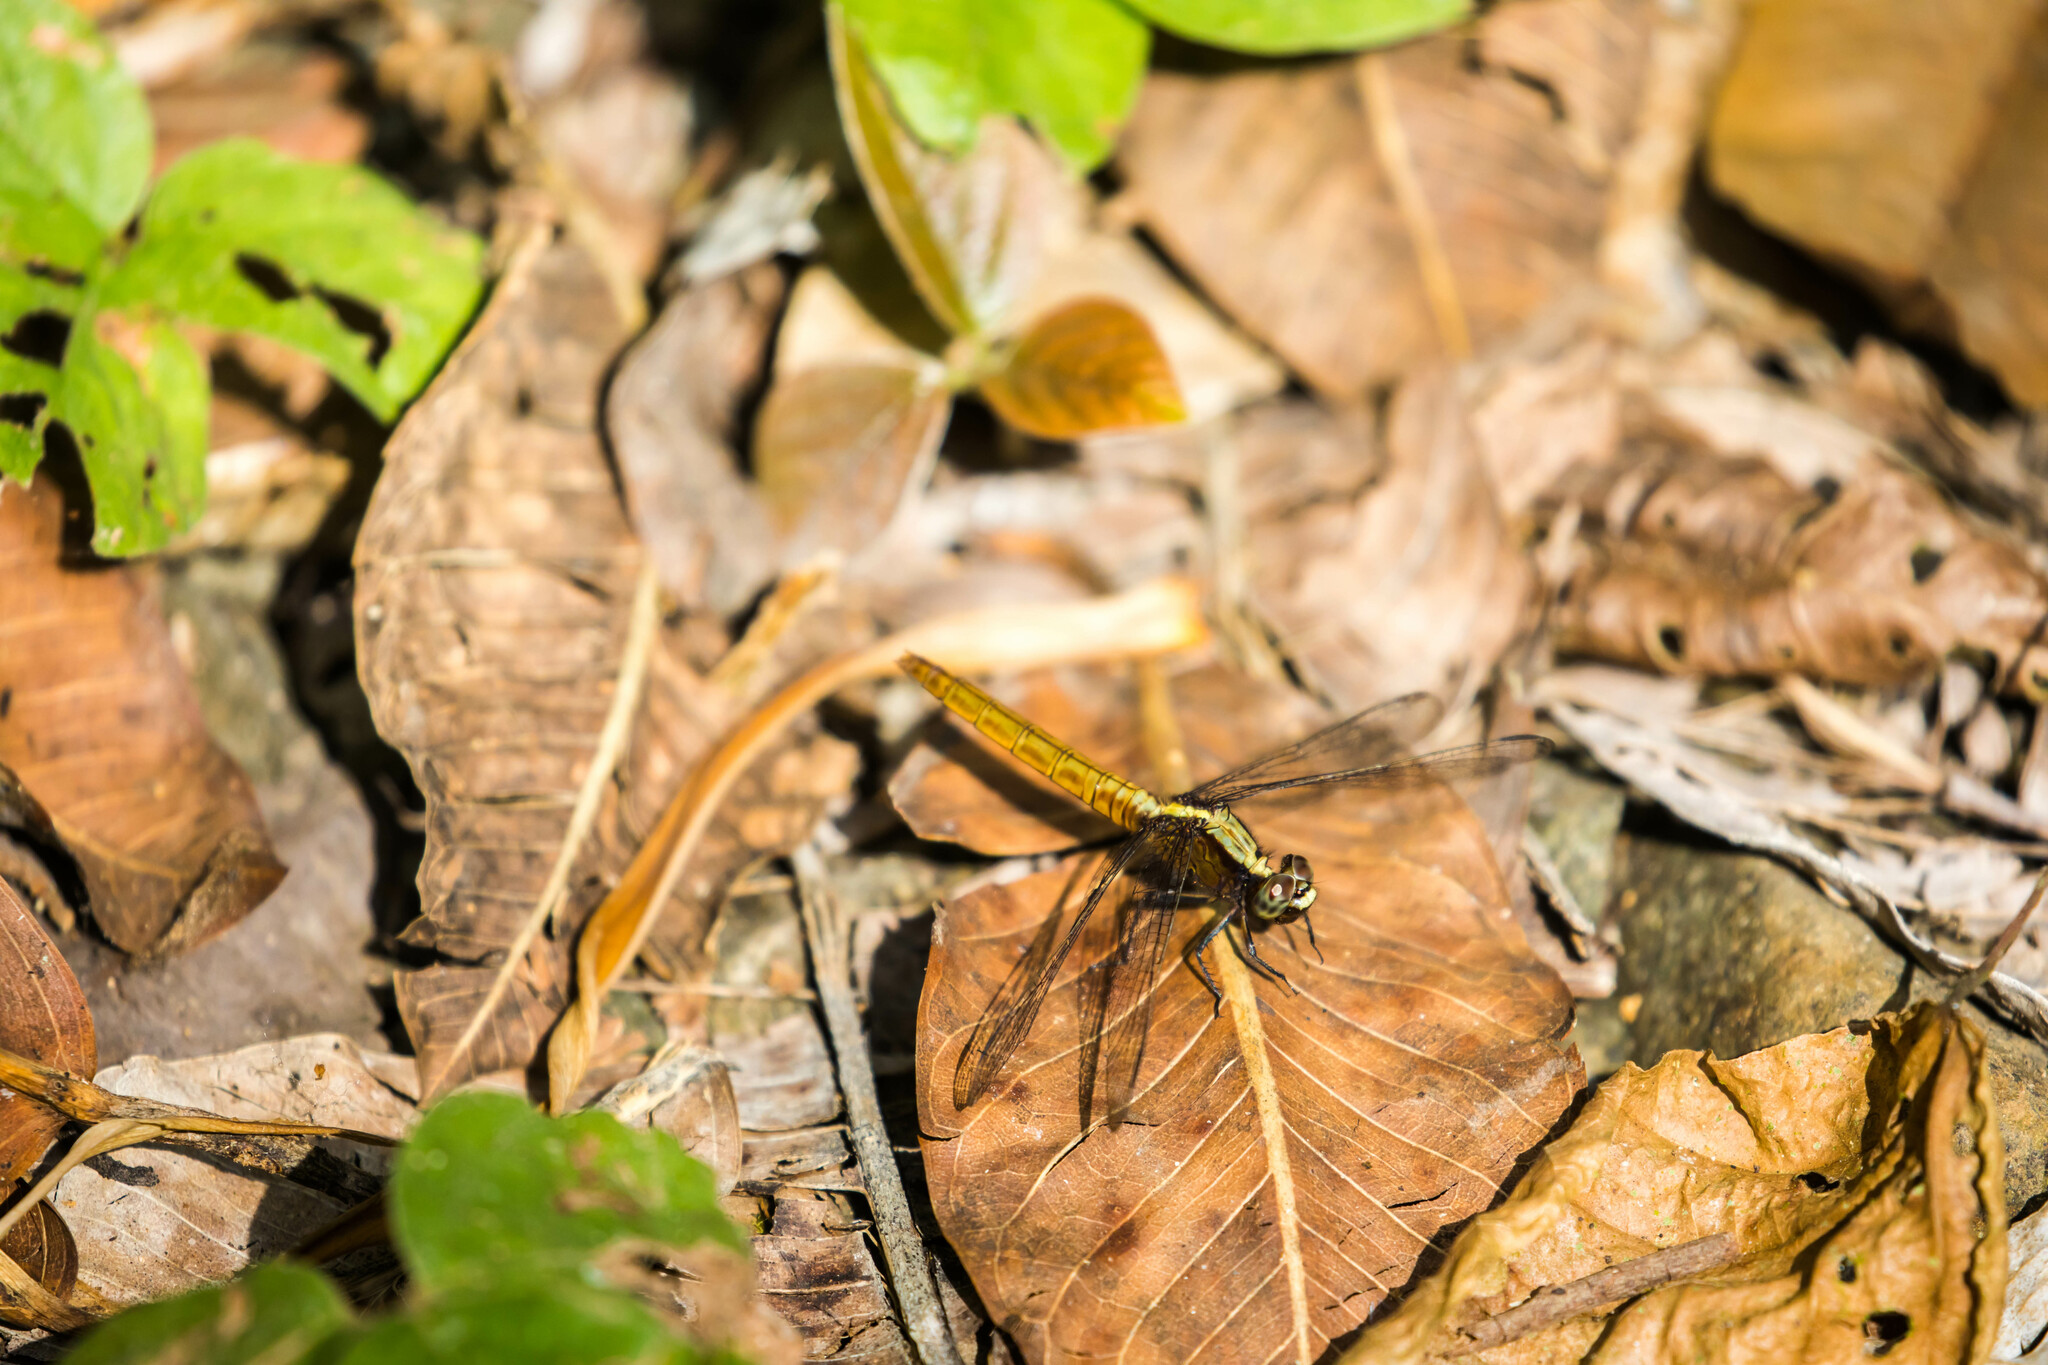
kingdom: Animalia
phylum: Arthropoda
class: Insecta
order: Odonata
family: Libellulidae
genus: Erythemis
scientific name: Erythemis peruviana
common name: Flame-tailed pondhawk
